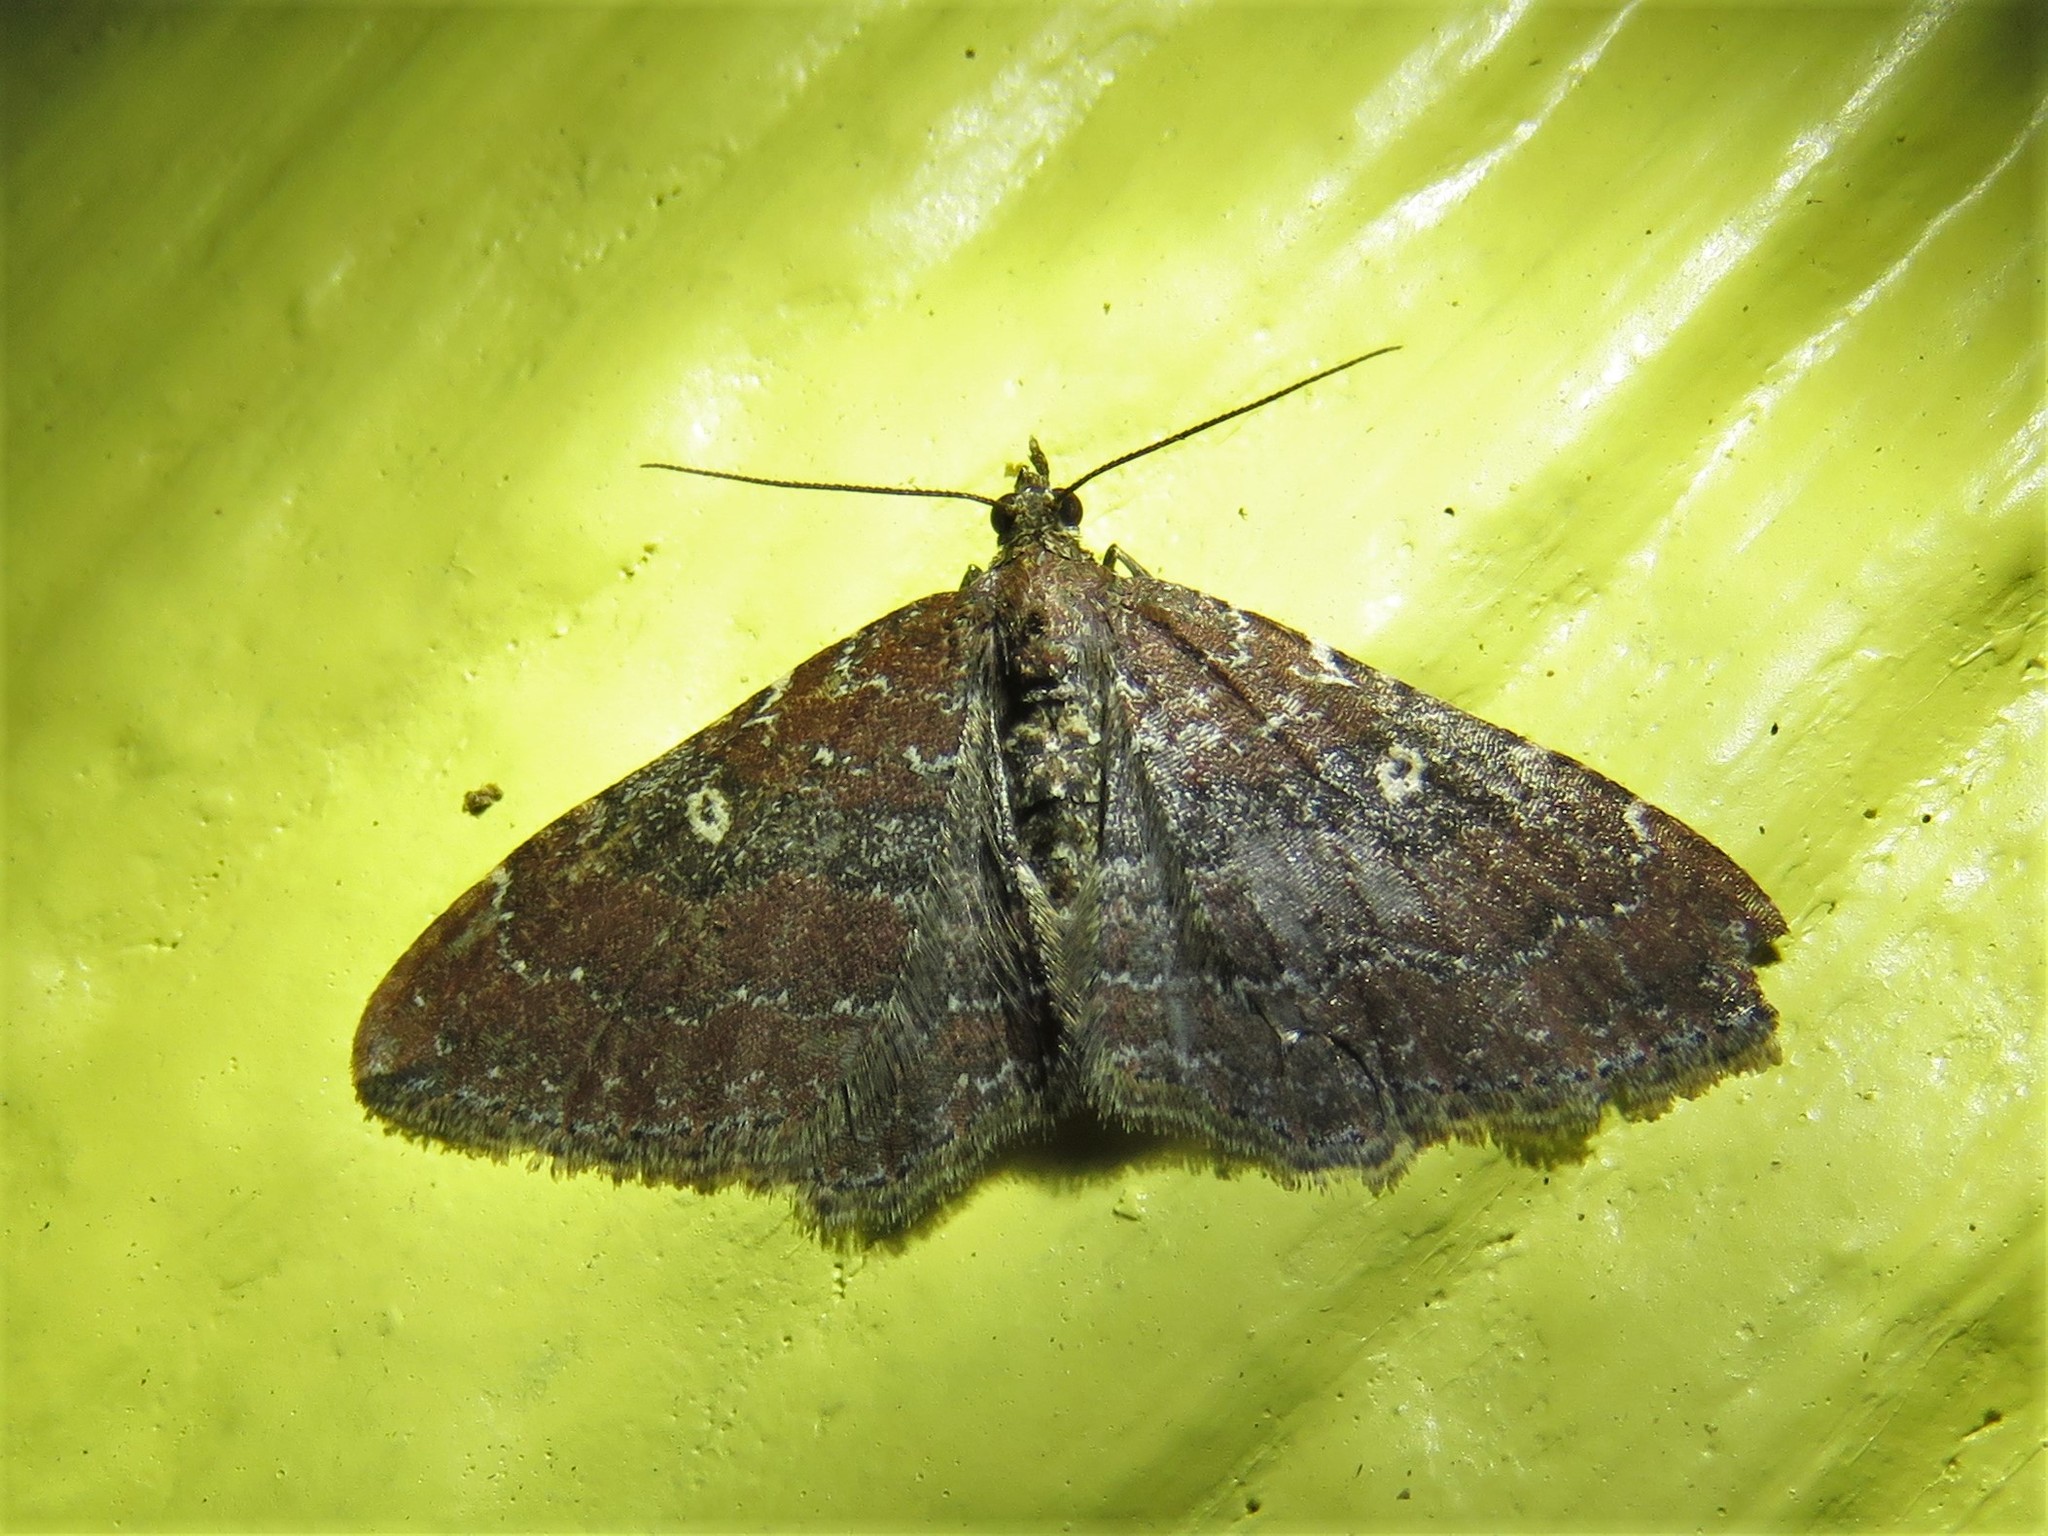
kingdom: Animalia
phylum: Arthropoda
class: Insecta
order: Lepidoptera
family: Geometridae
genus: Orthonama
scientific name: Orthonama obstipata
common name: The gem
